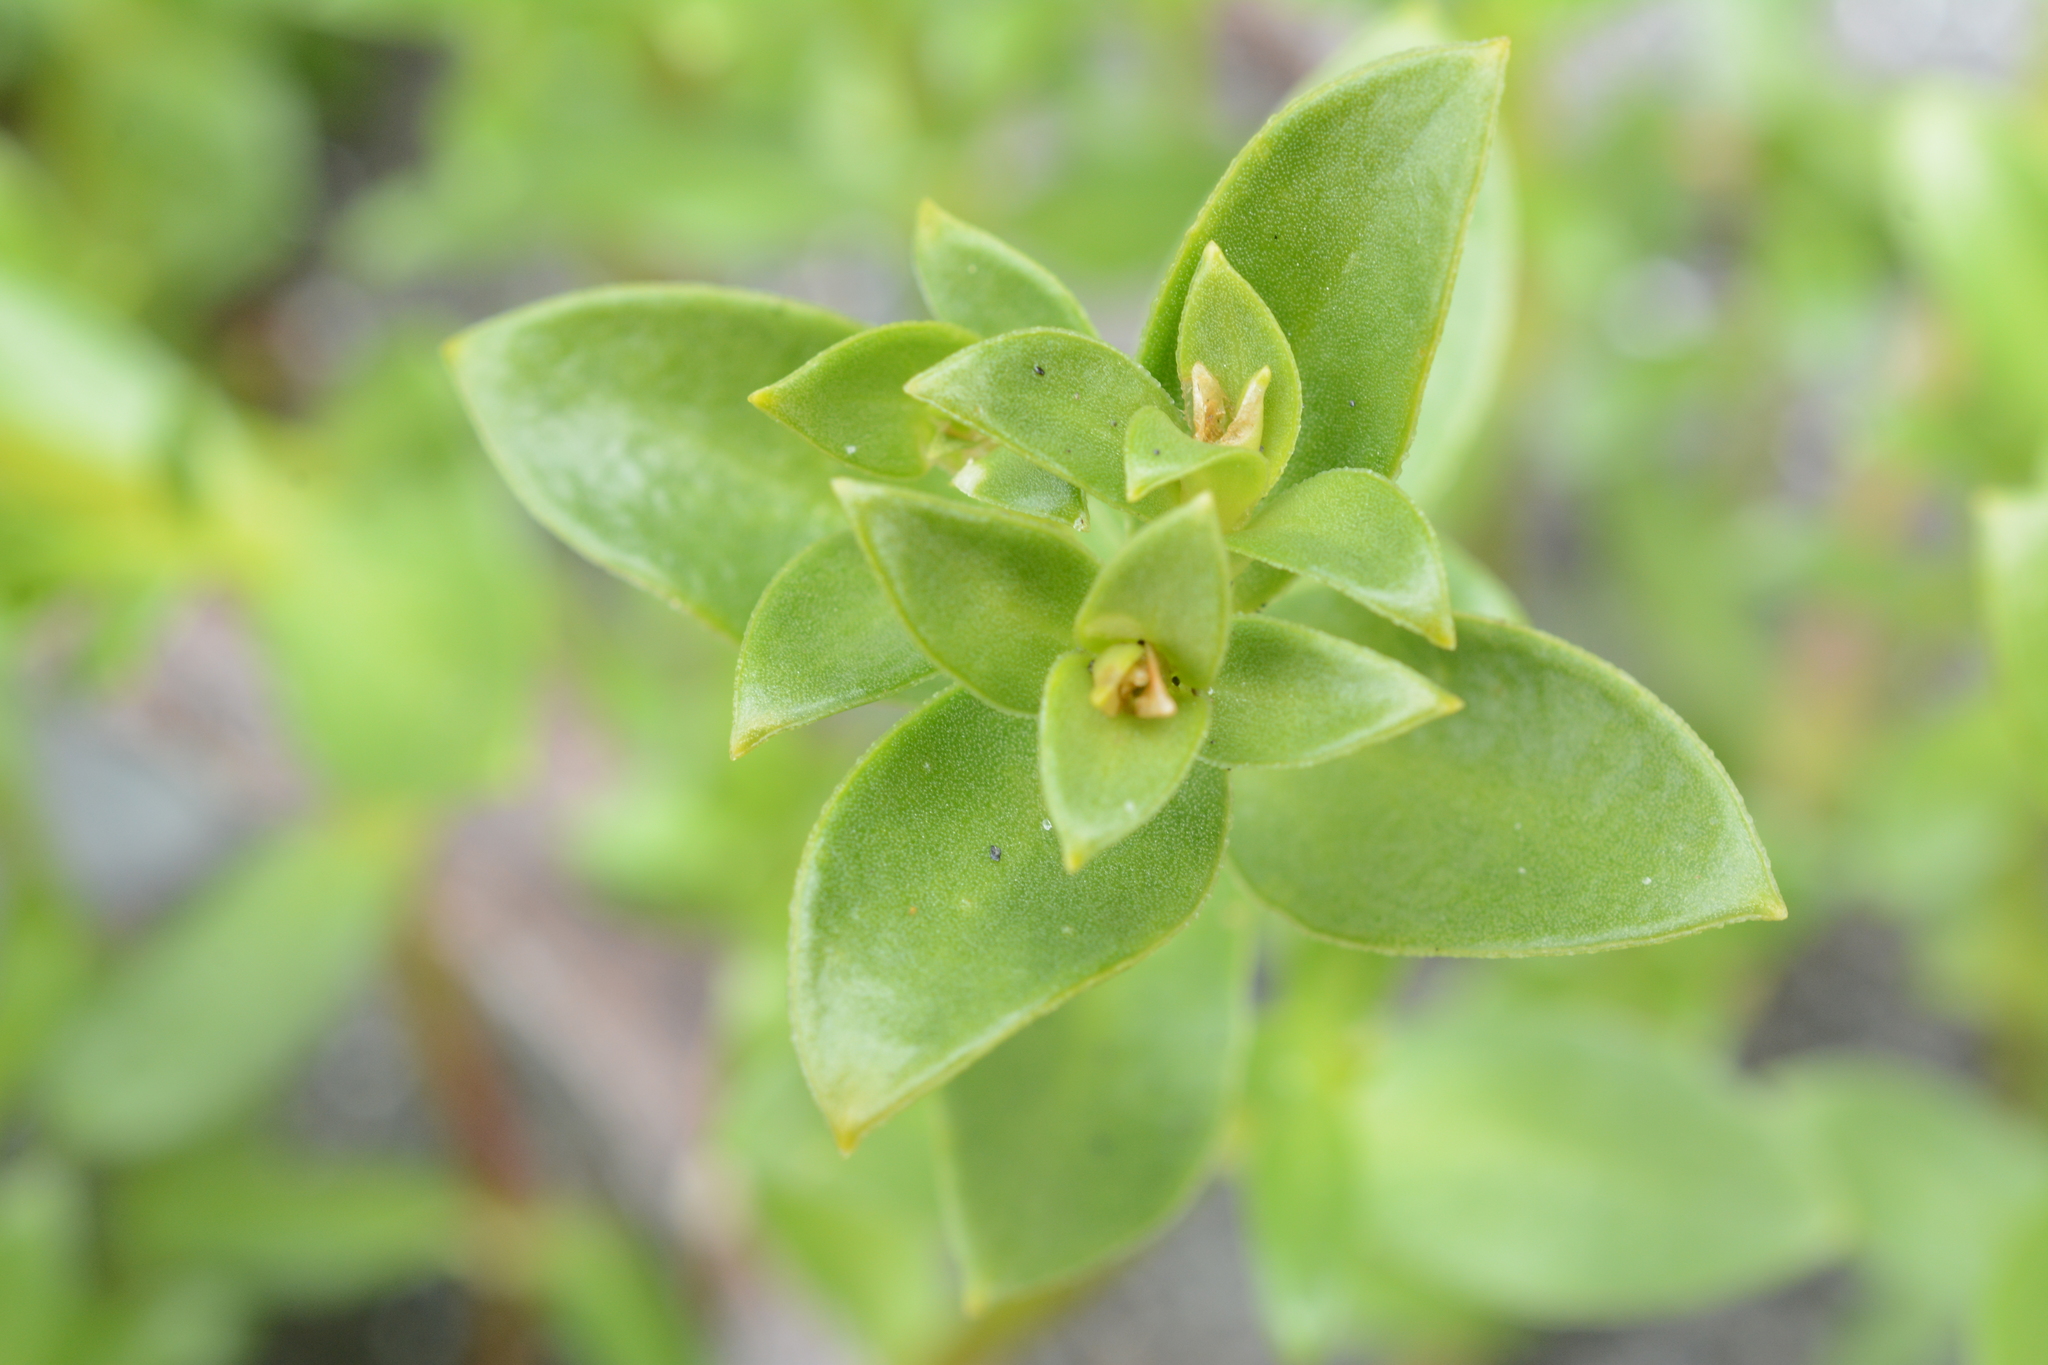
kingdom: Plantae
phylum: Tracheophyta
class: Magnoliopsida
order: Caryophyllales
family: Caryophyllaceae
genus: Honckenya
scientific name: Honckenya peploides
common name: Sea sandwort
